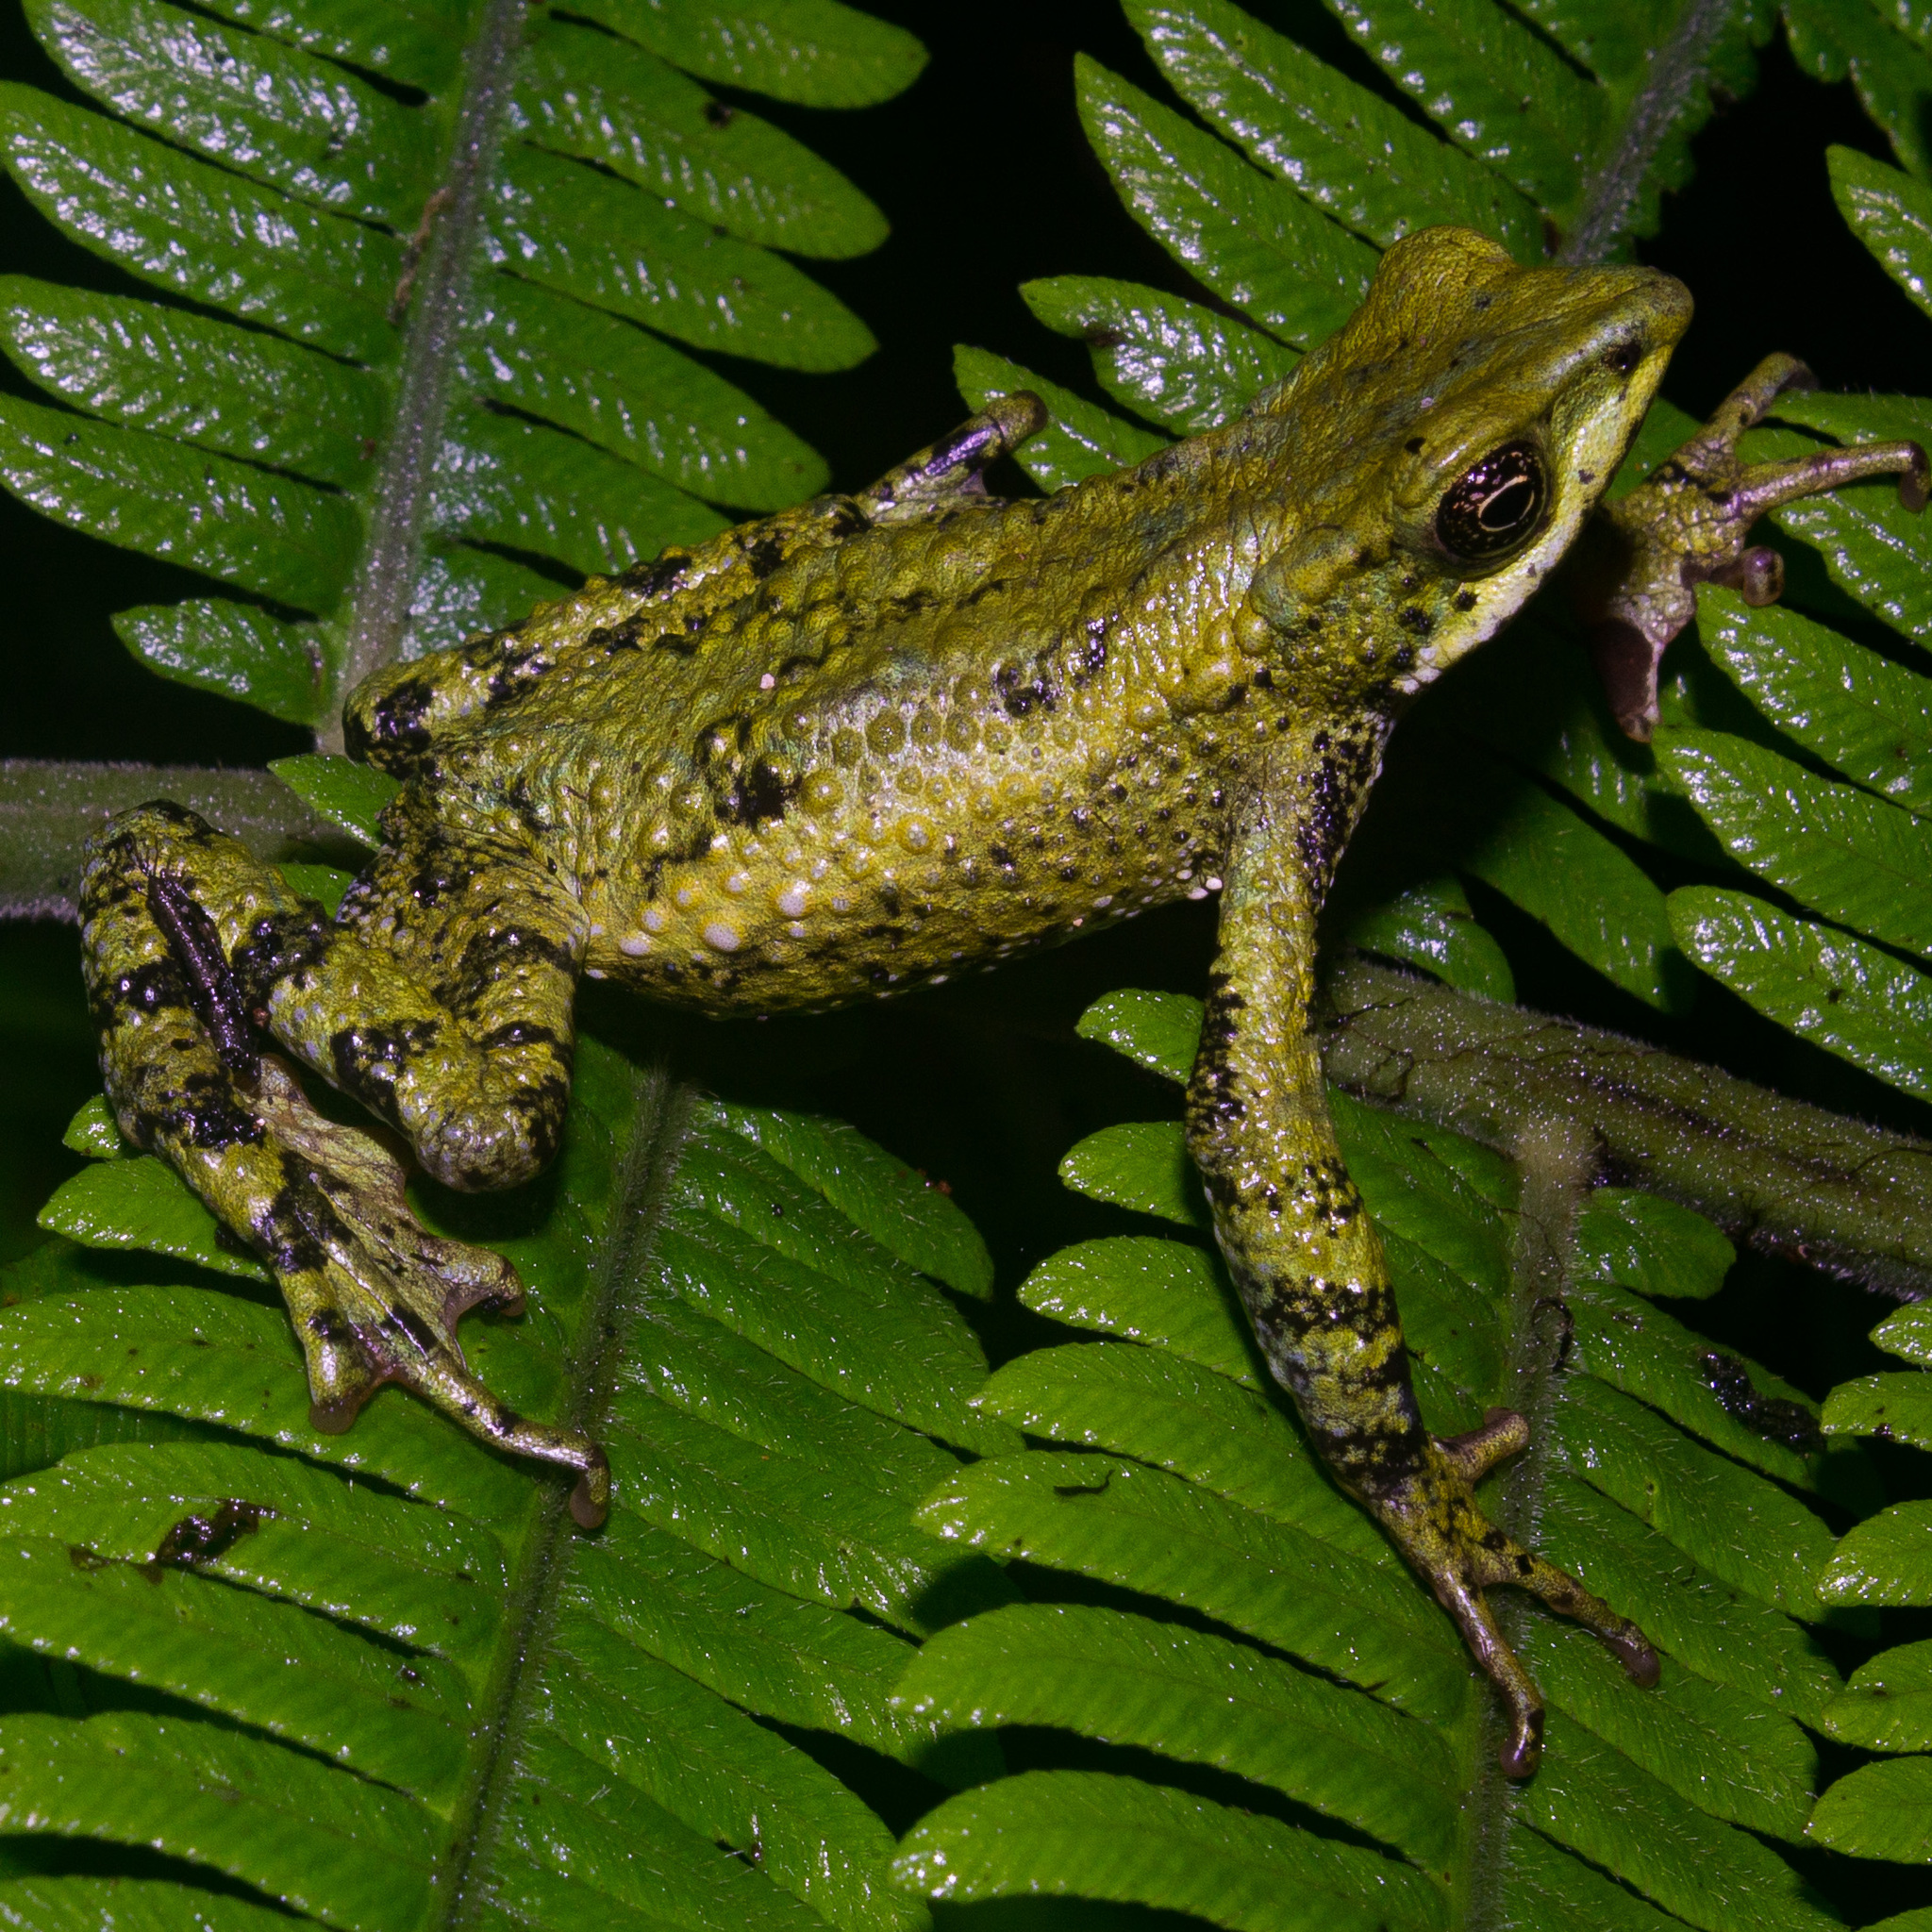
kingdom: Animalia
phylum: Chordata
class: Amphibia
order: Anura
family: Bufonidae
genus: Atelopus
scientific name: Atelopus laetissimus
